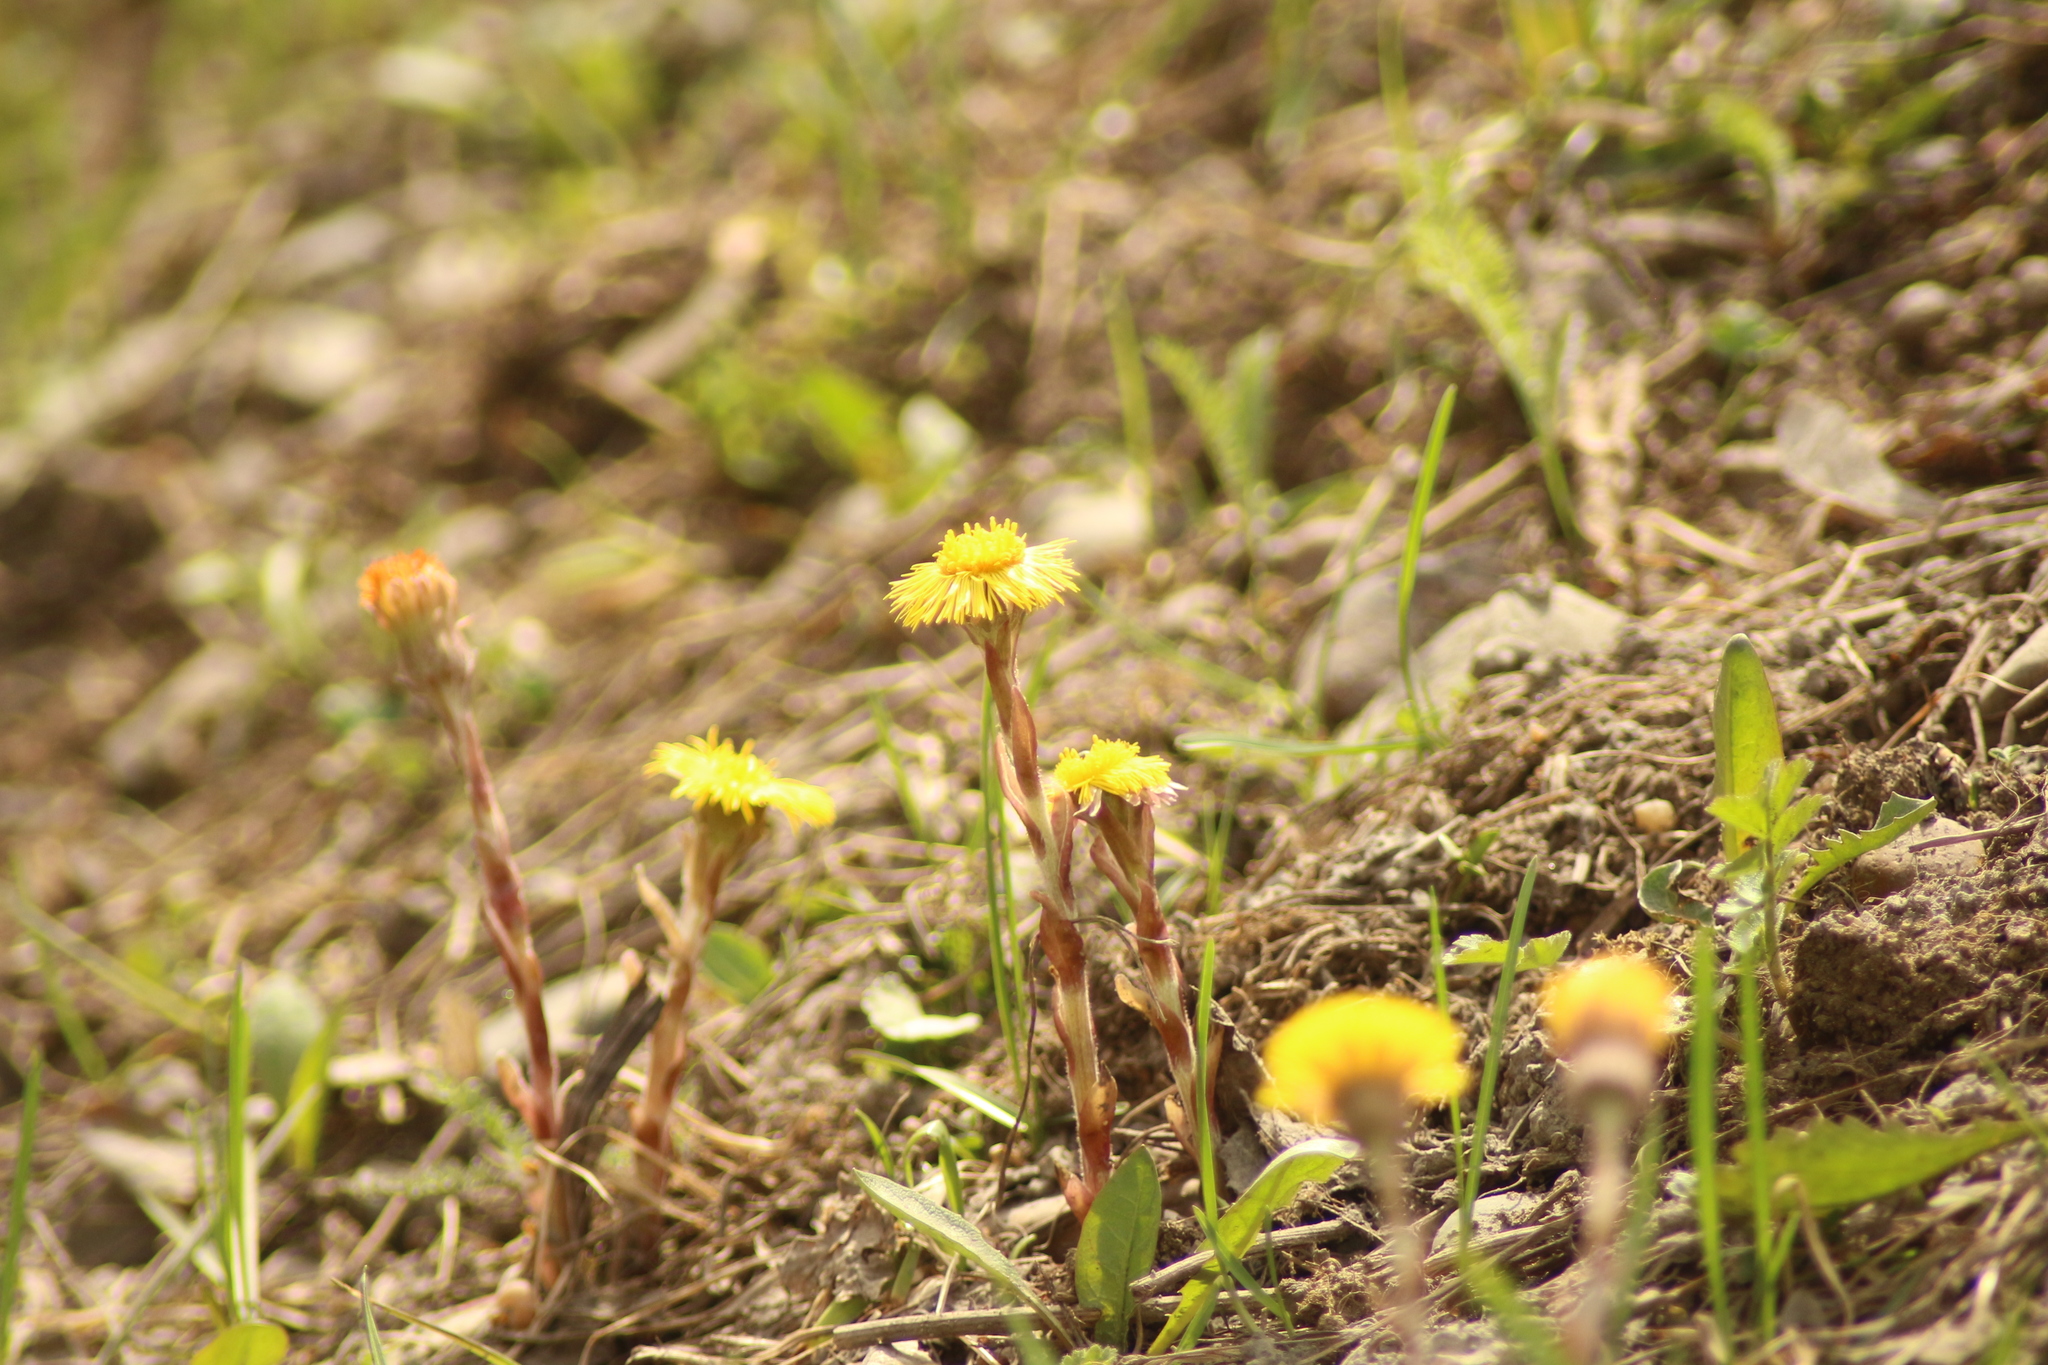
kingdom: Plantae
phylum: Tracheophyta
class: Magnoliopsida
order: Asterales
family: Asteraceae
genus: Tussilago
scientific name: Tussilago farfara
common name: Coltsfoot
